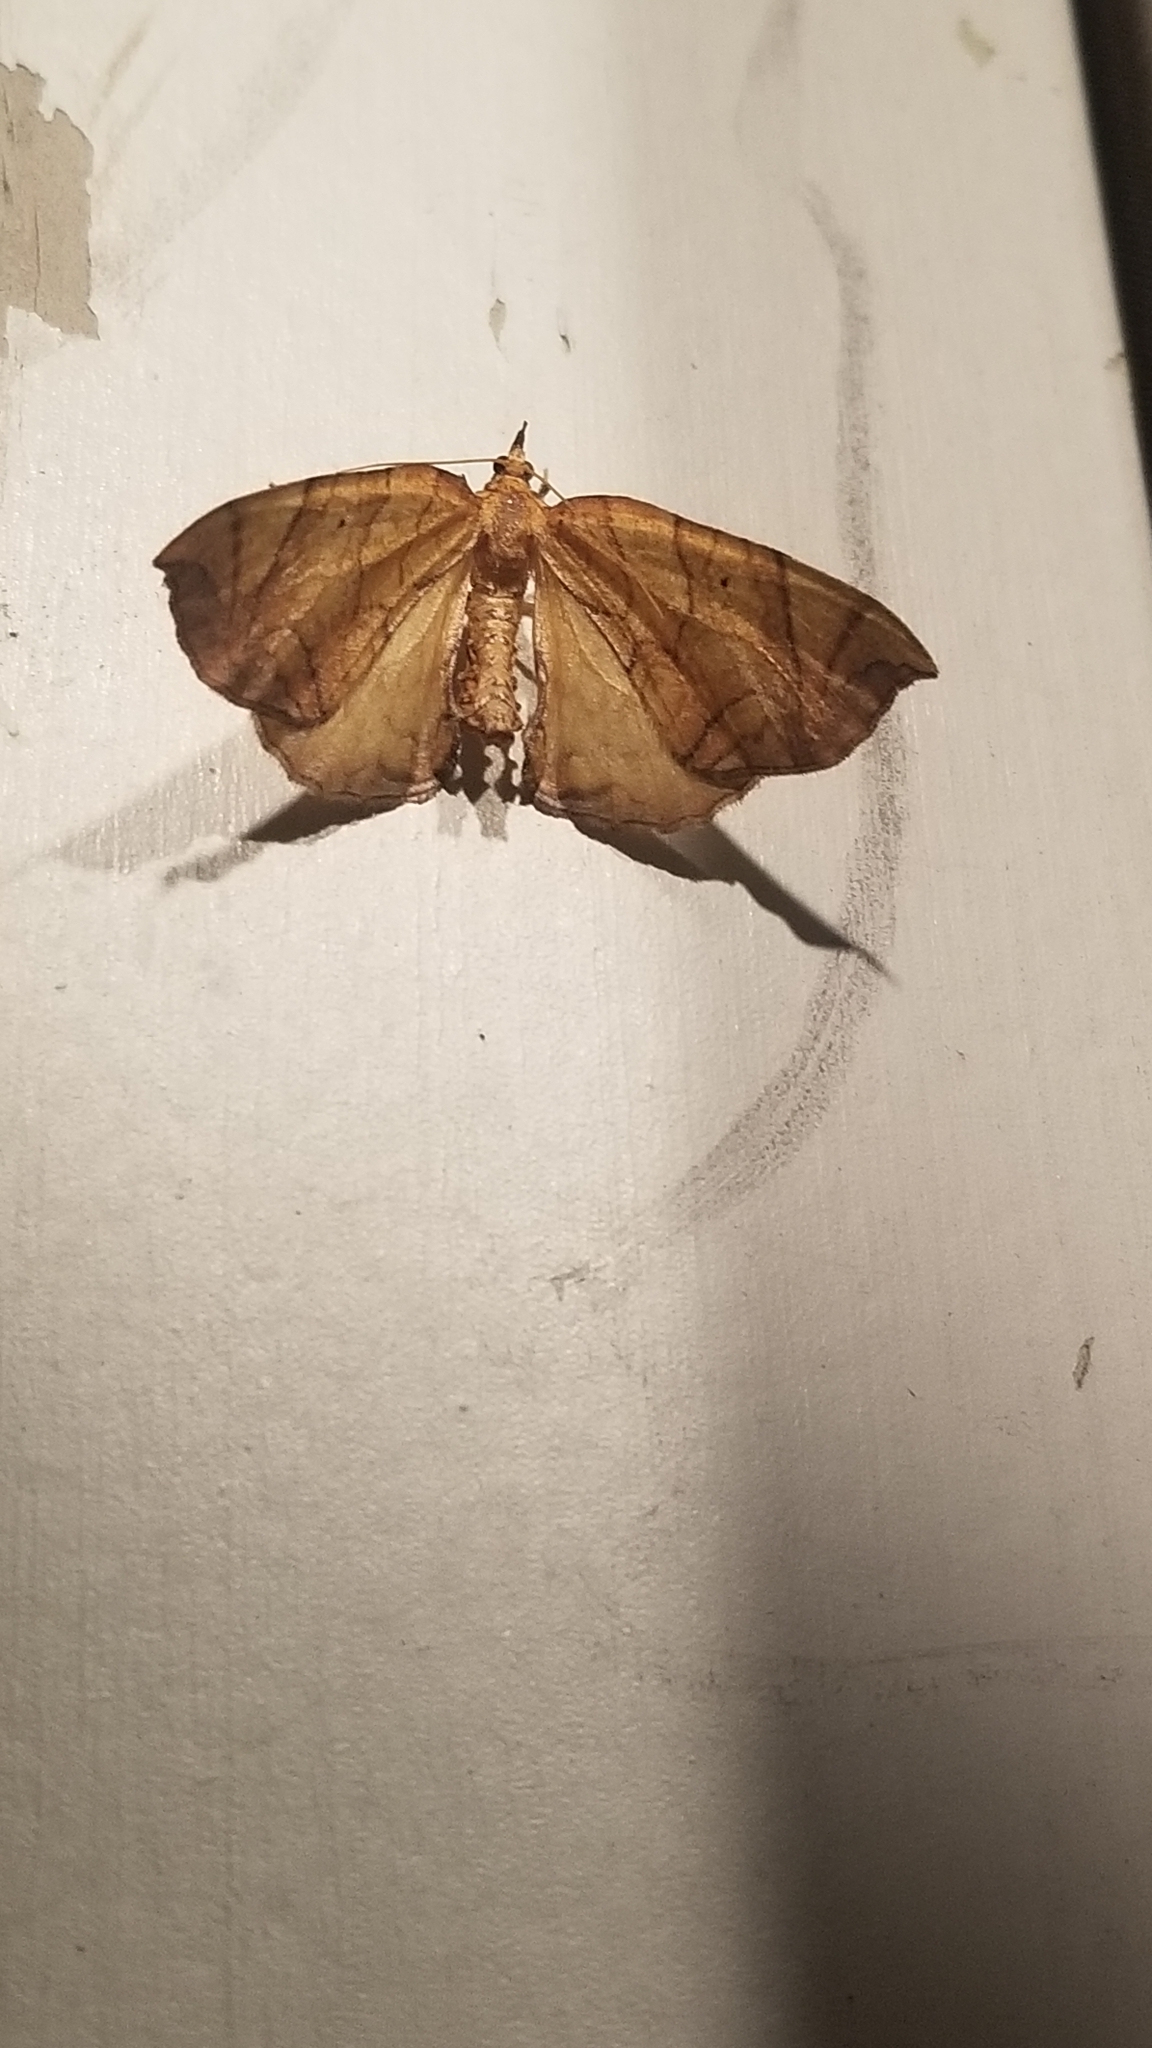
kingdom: Animalia
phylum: Arthropoda
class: Insecta
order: Lepidoptera
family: Geometridae
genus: Eulithis
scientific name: Eulithis
